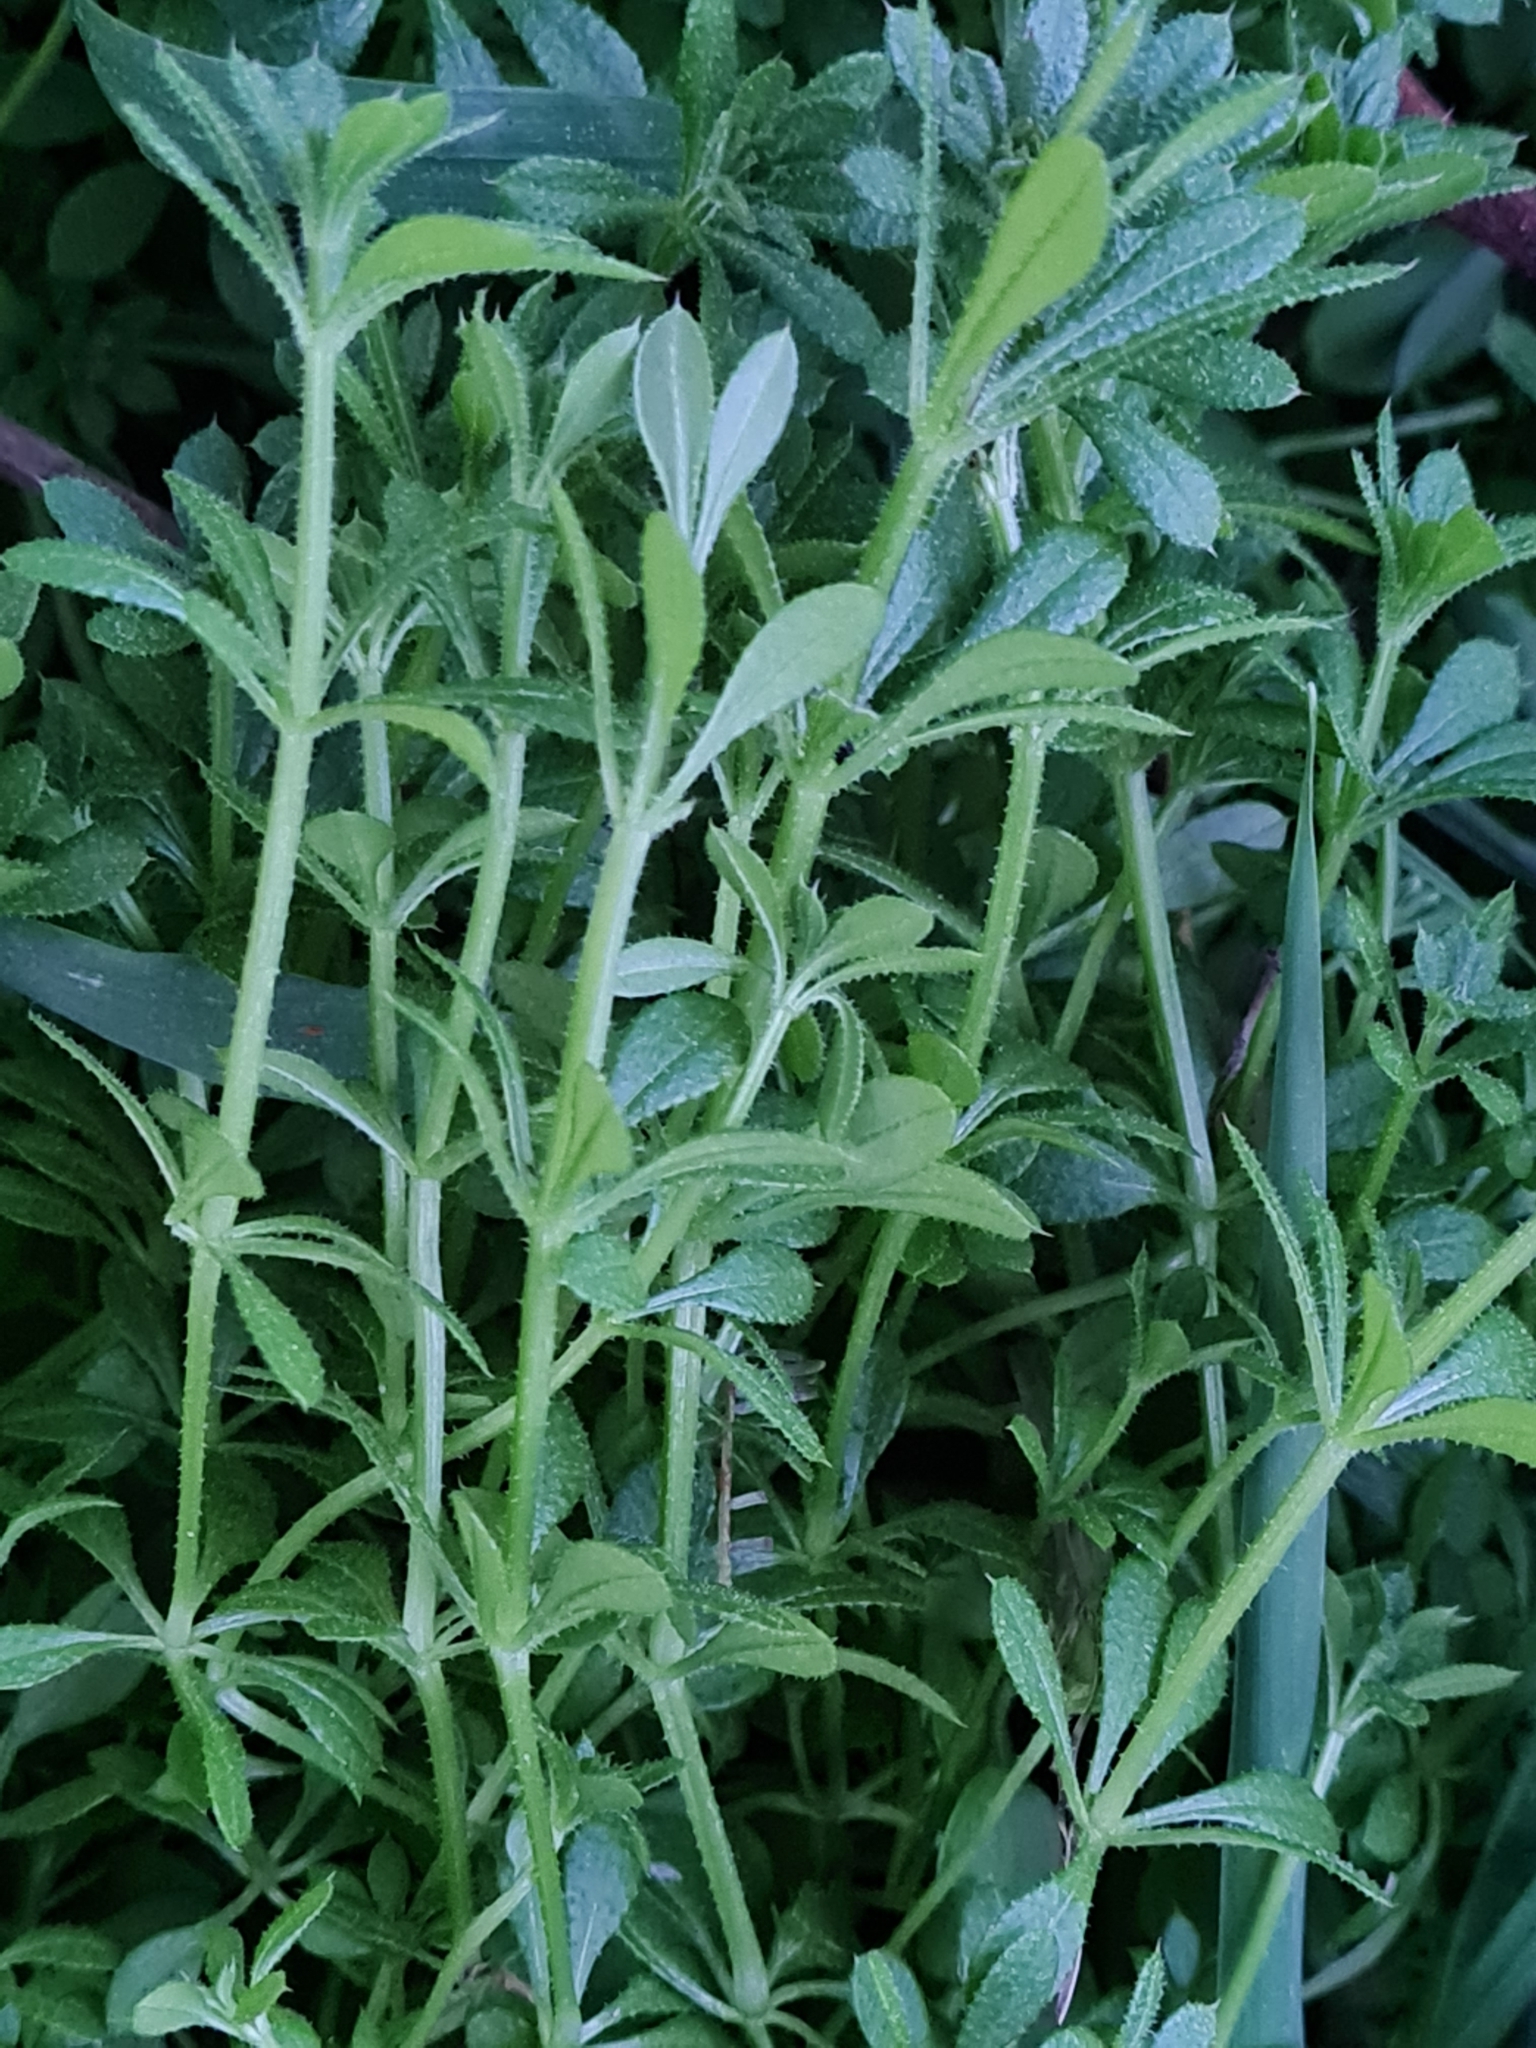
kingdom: Plantae
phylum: Tracheophyta
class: Magnoliopsida
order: Gentianales
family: Rubiaceae
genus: Galium
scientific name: Galium aparine
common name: Cleavers
